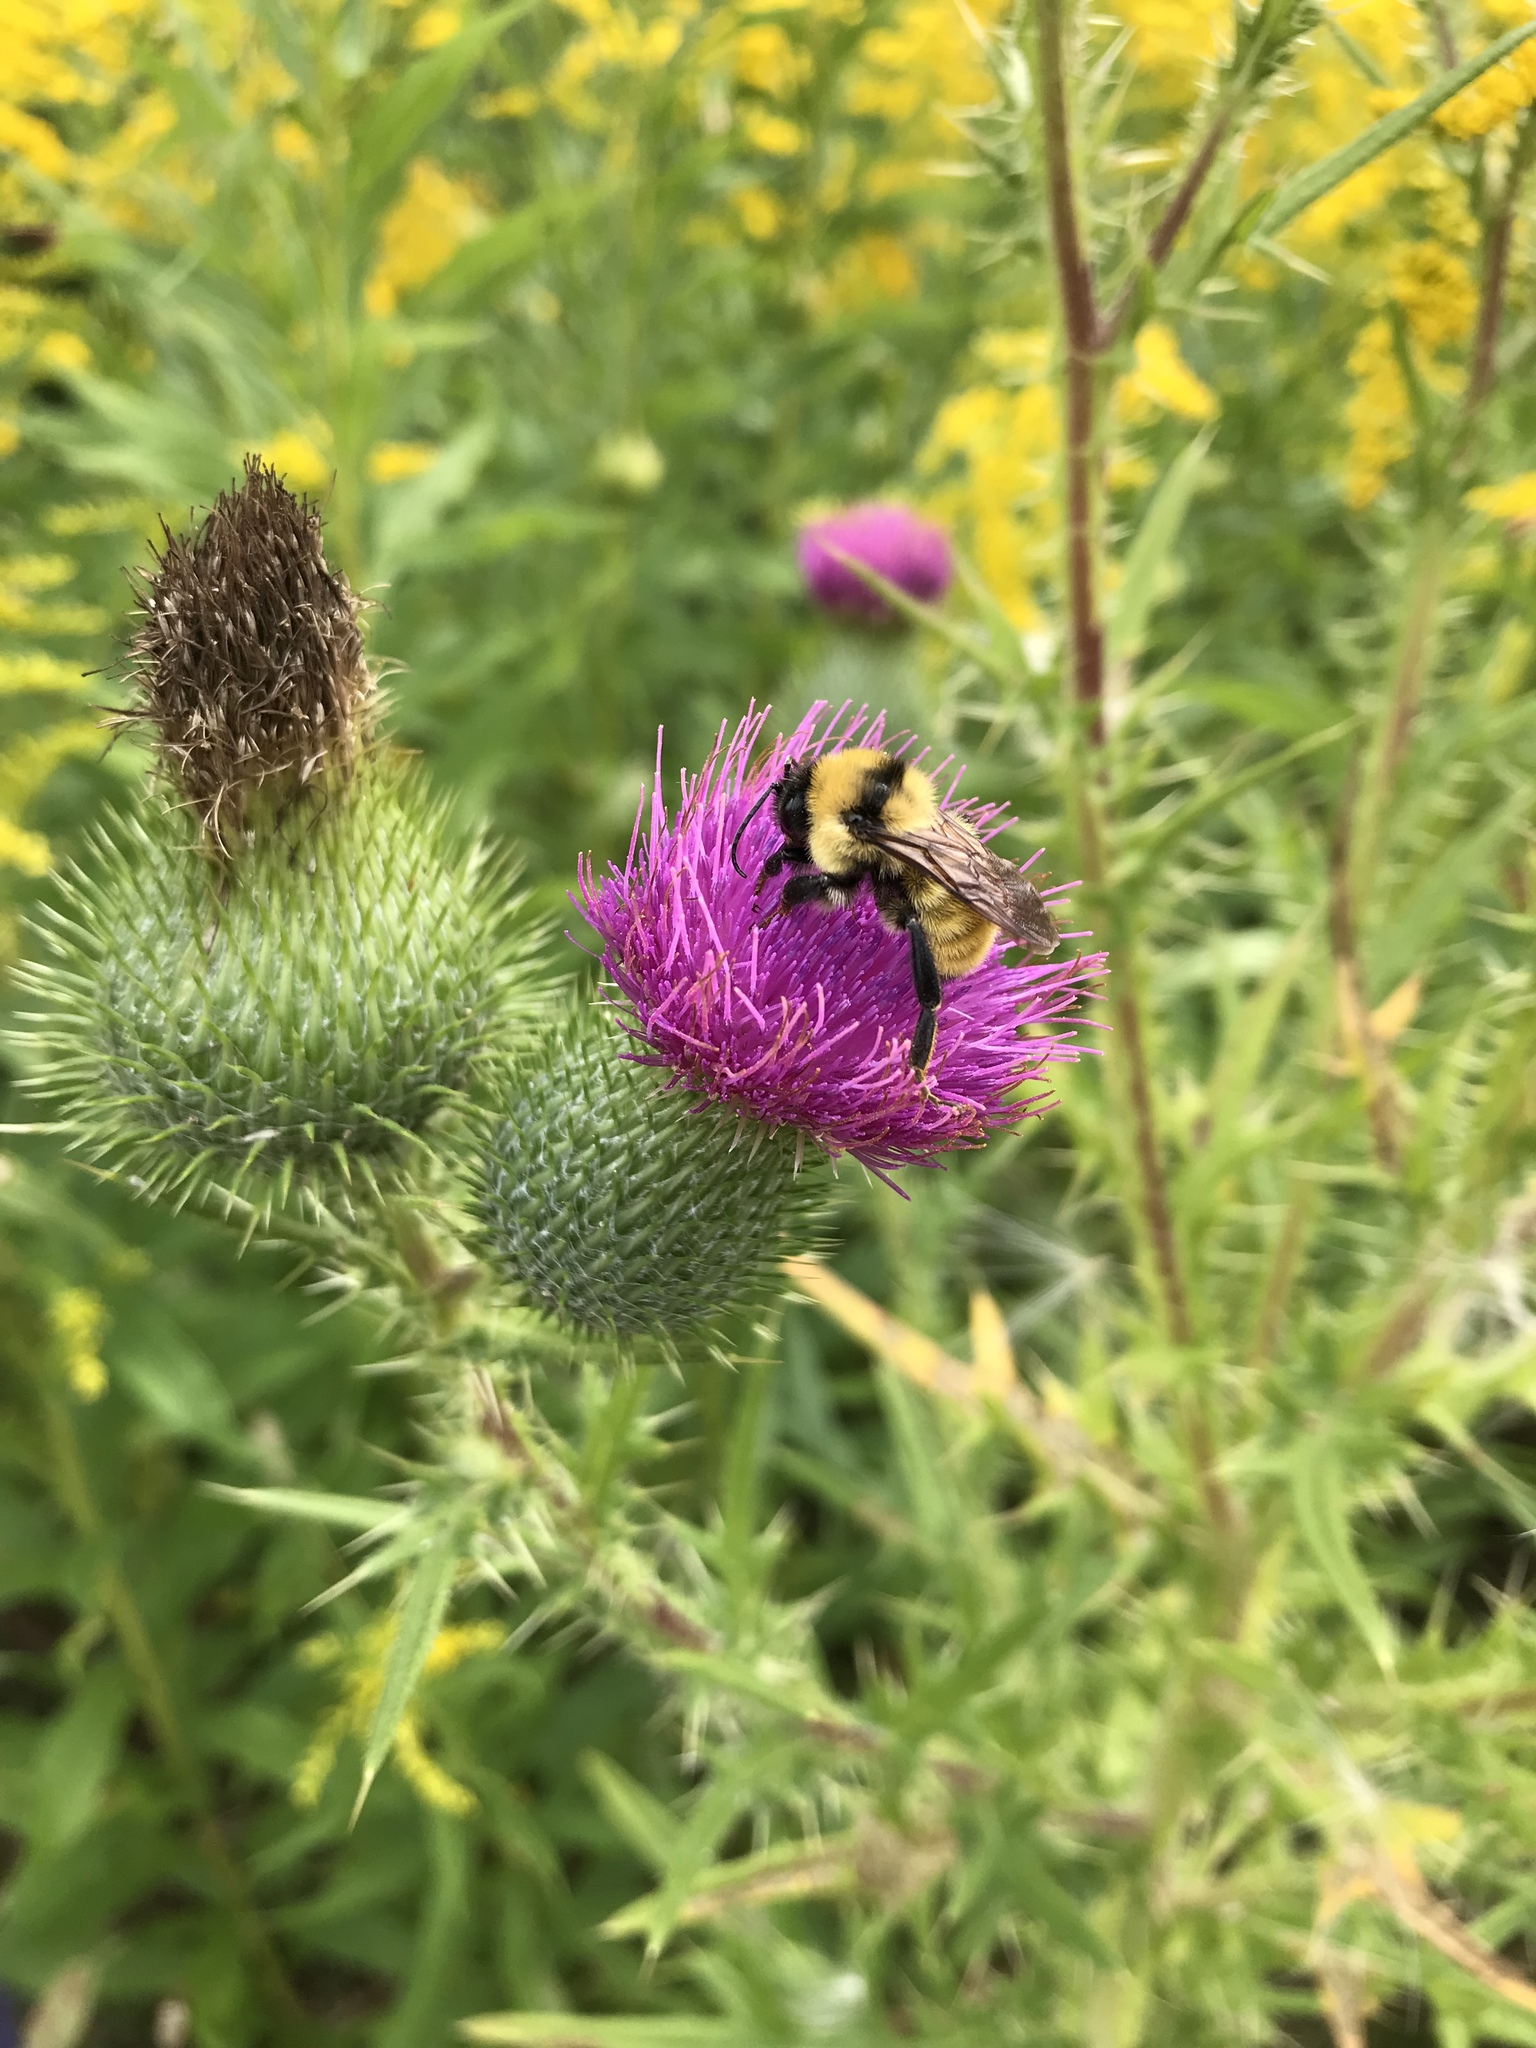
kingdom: Animalia
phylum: Arthropoda
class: Insecta
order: Hymenoptera
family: Apidae
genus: Bombus
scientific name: Bombus fervidus
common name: Yellow bumble bee
